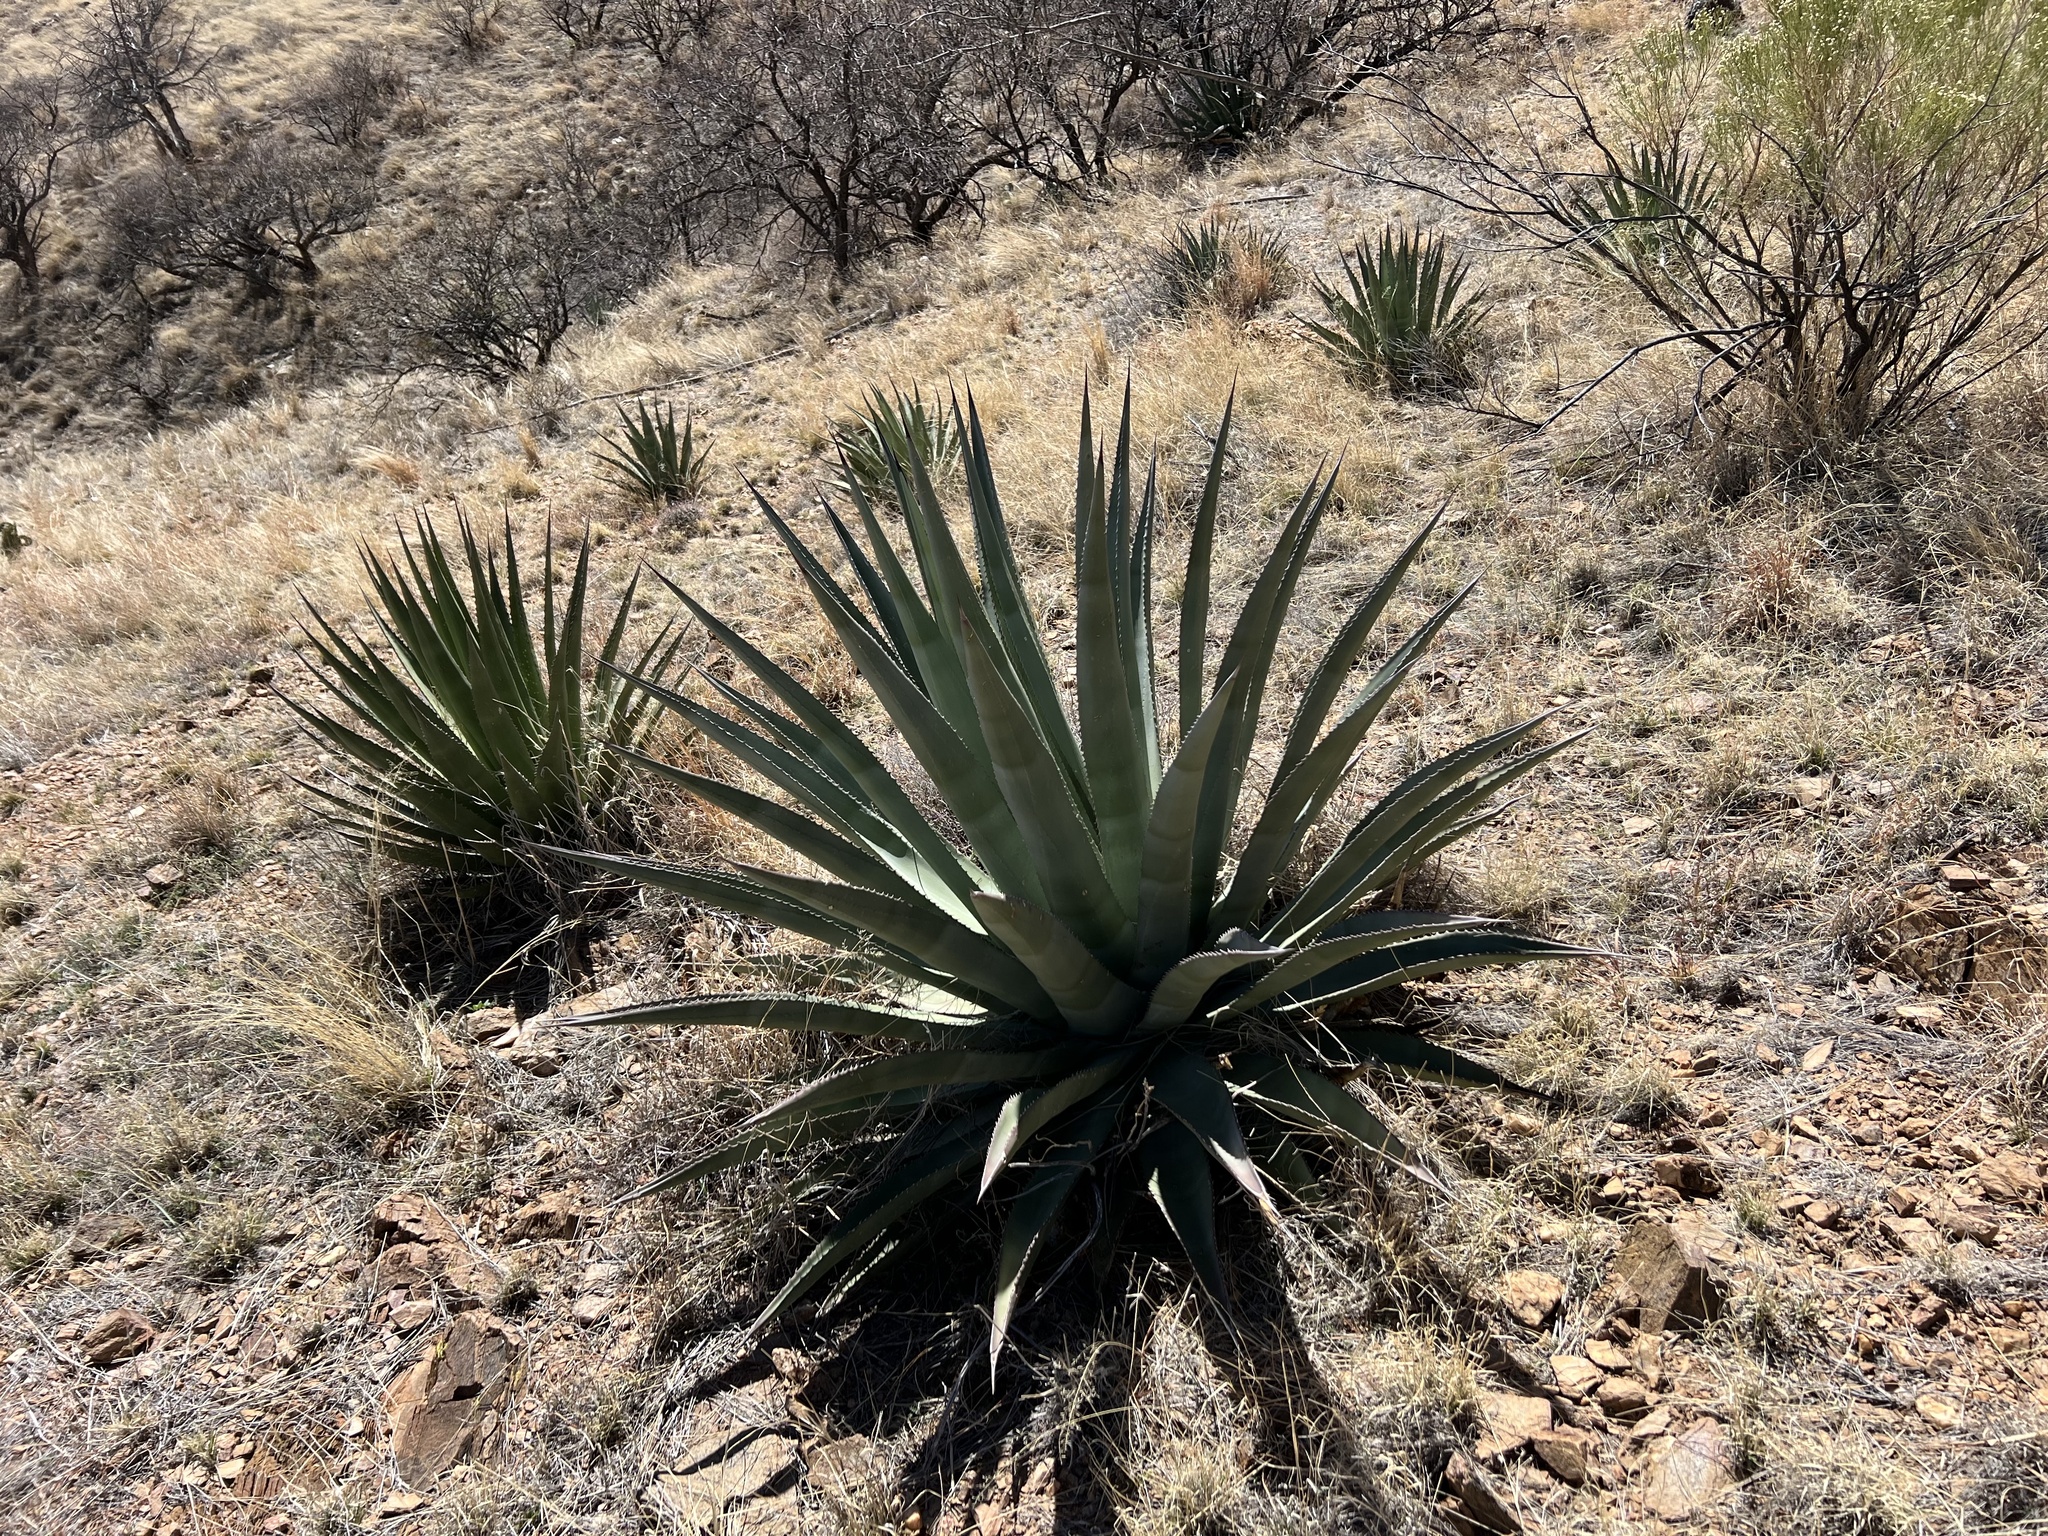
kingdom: Plantae
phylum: Tracheophyta
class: Liliopsida
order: Asparagales
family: Asparagaceae
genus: Agave
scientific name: Agave palmeri
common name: Palmer agave
